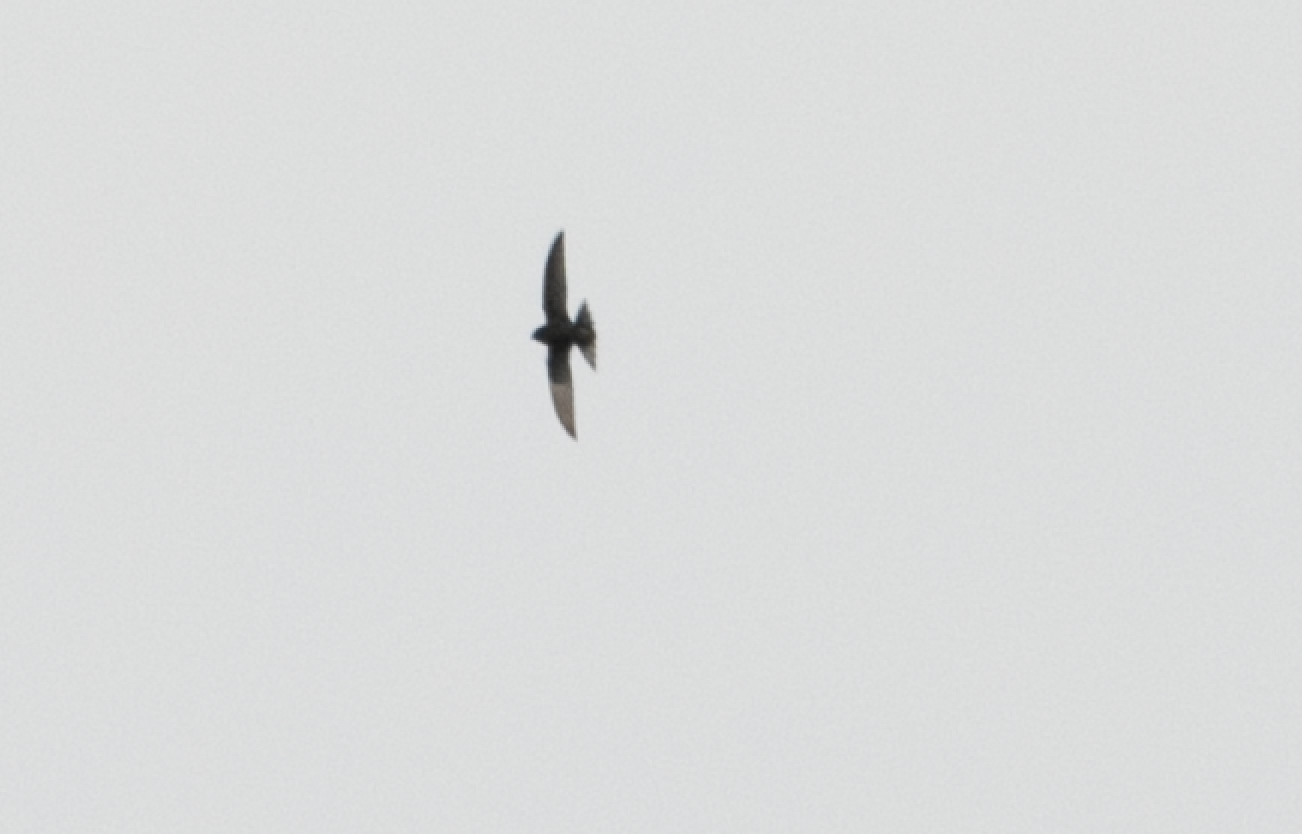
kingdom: Animalia
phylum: Chordata
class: Aves
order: Apodiformes
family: Apodidae
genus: Apus
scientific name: Apus apus
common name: Common swift
